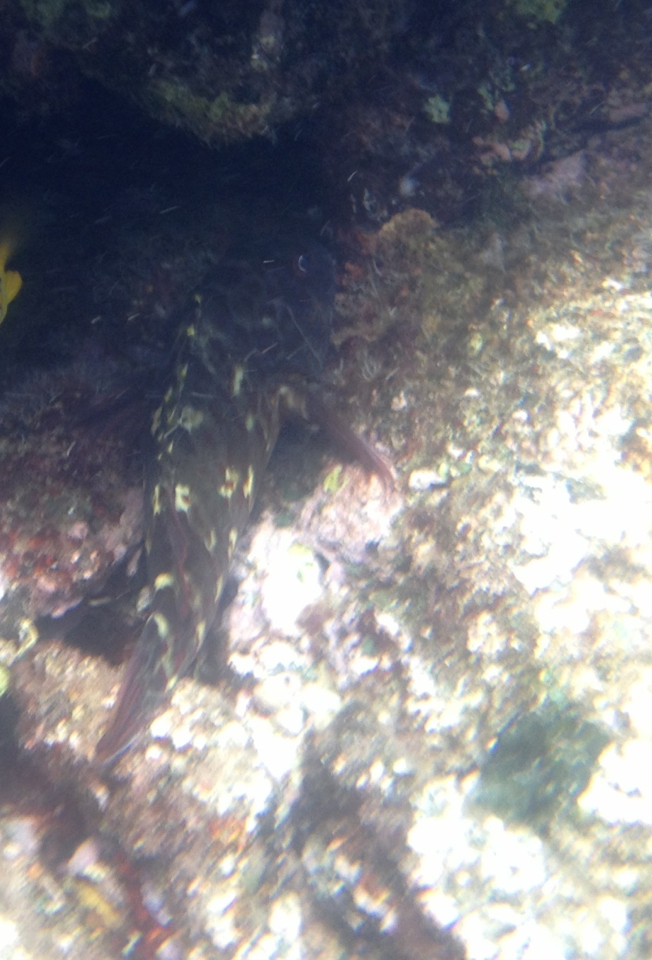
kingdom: Animalia
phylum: Chordata
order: Perciformes
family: Cirrhitidae
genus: Cirrhitus
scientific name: Cirrhitus pinnulatus
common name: Stocky hawkfish
